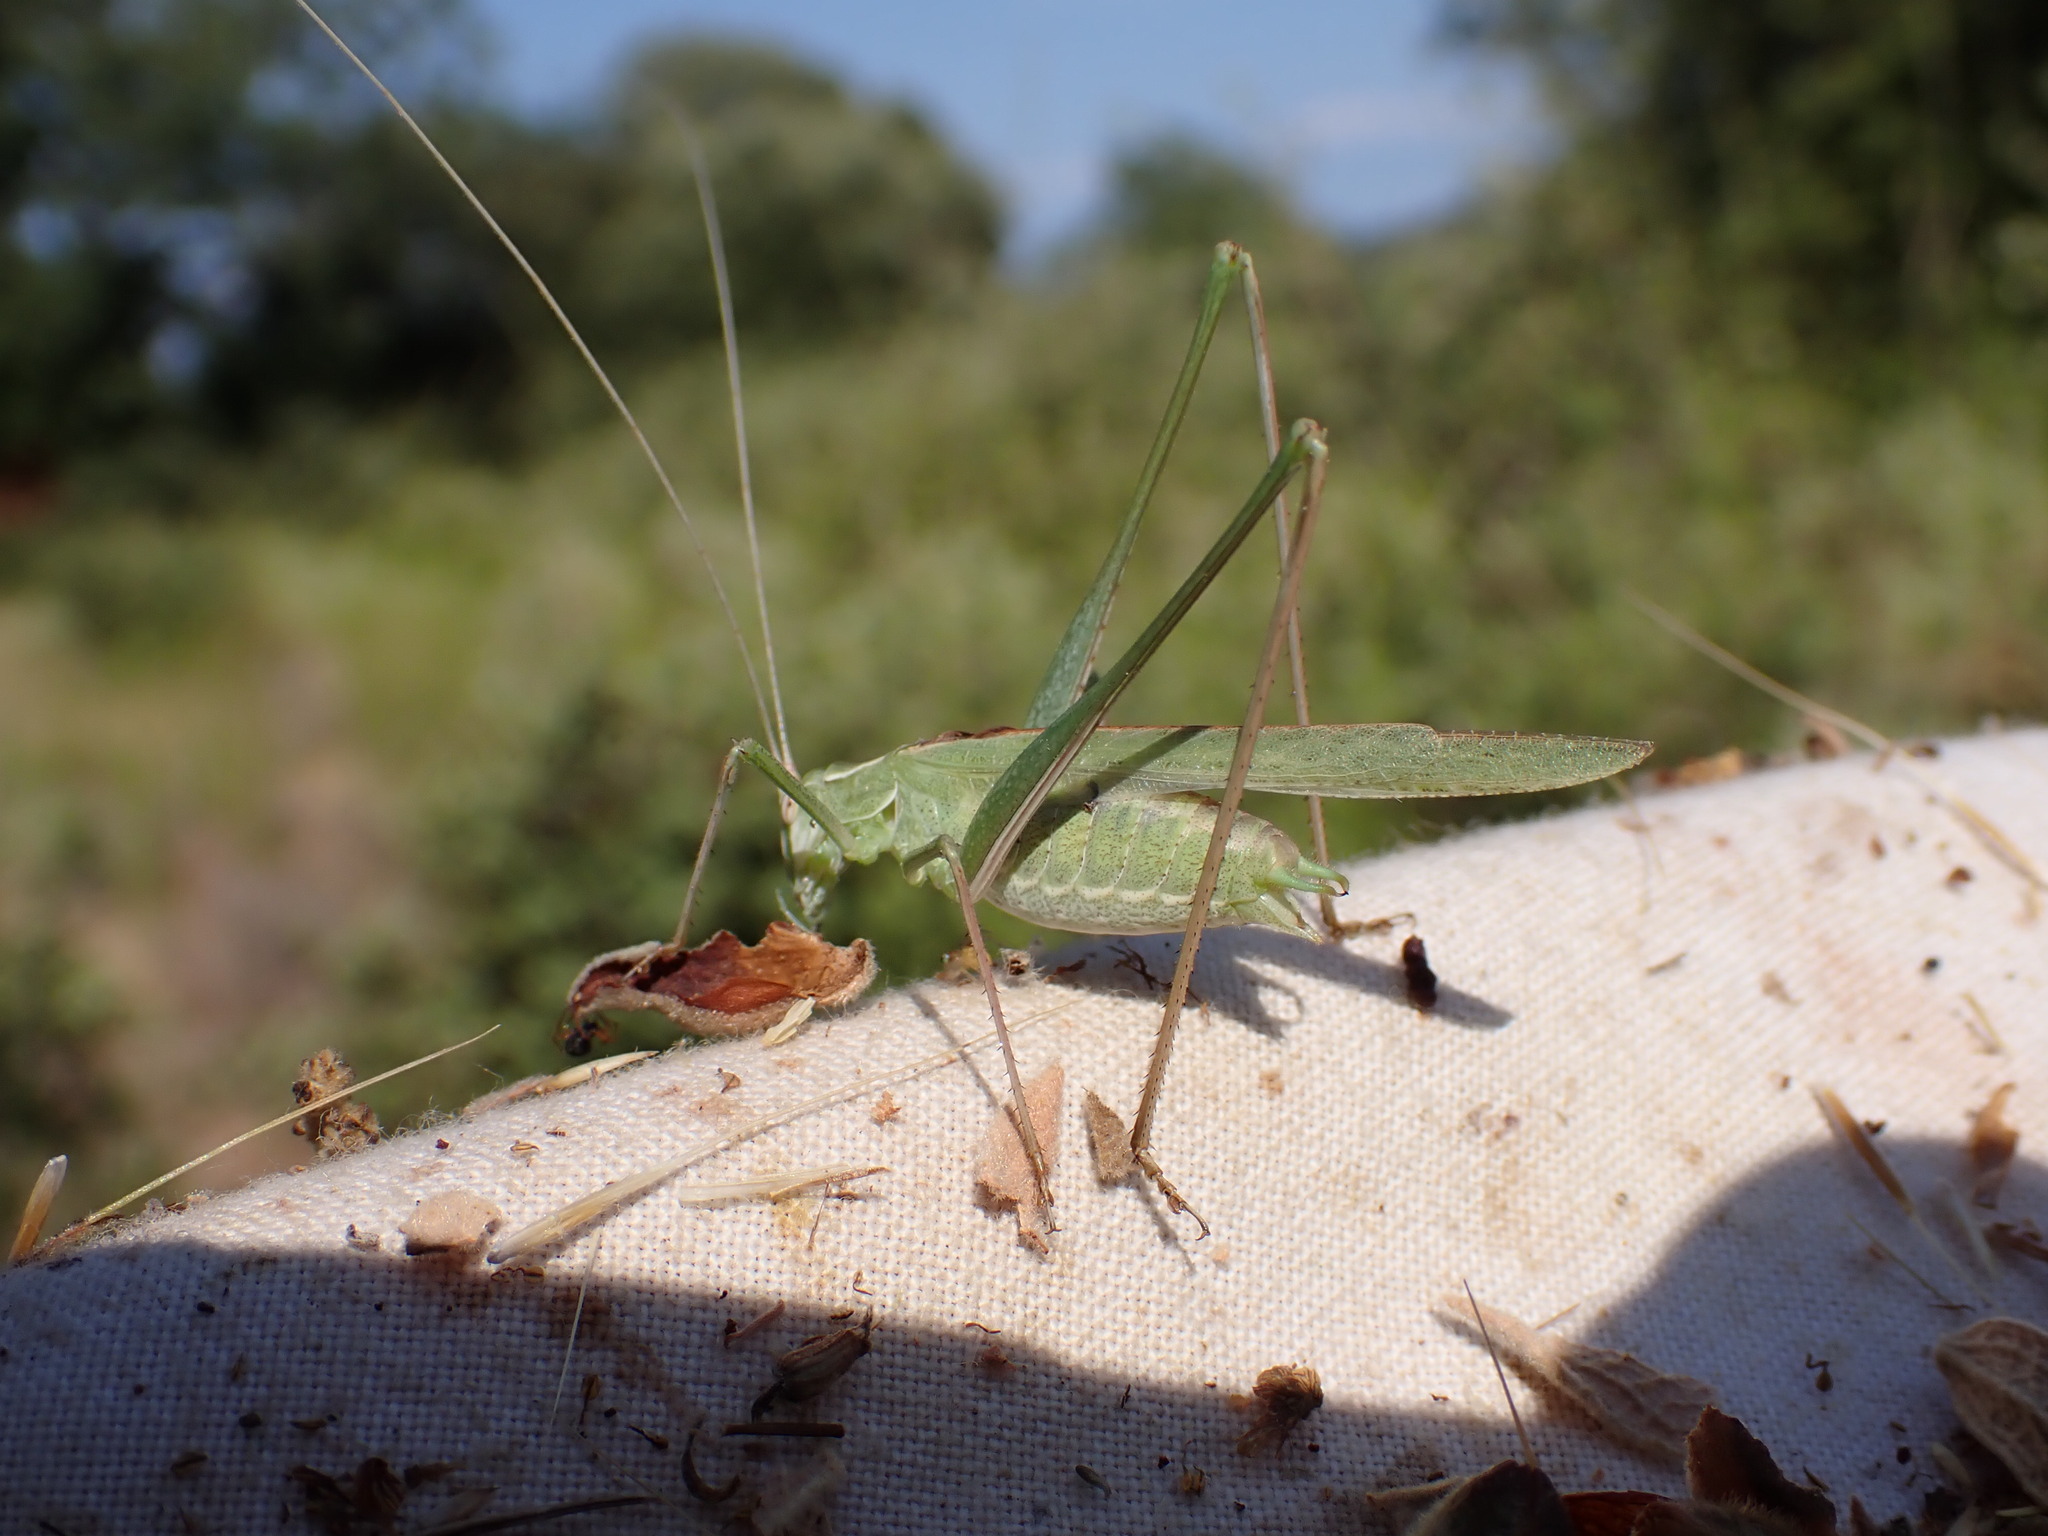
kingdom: Animalia
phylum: Arthropoda
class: Insecta
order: Orthoptera
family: Tettigoniidae
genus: Tylopsis
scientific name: Tylopsis lilifolia
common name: Lily bush-cricket
